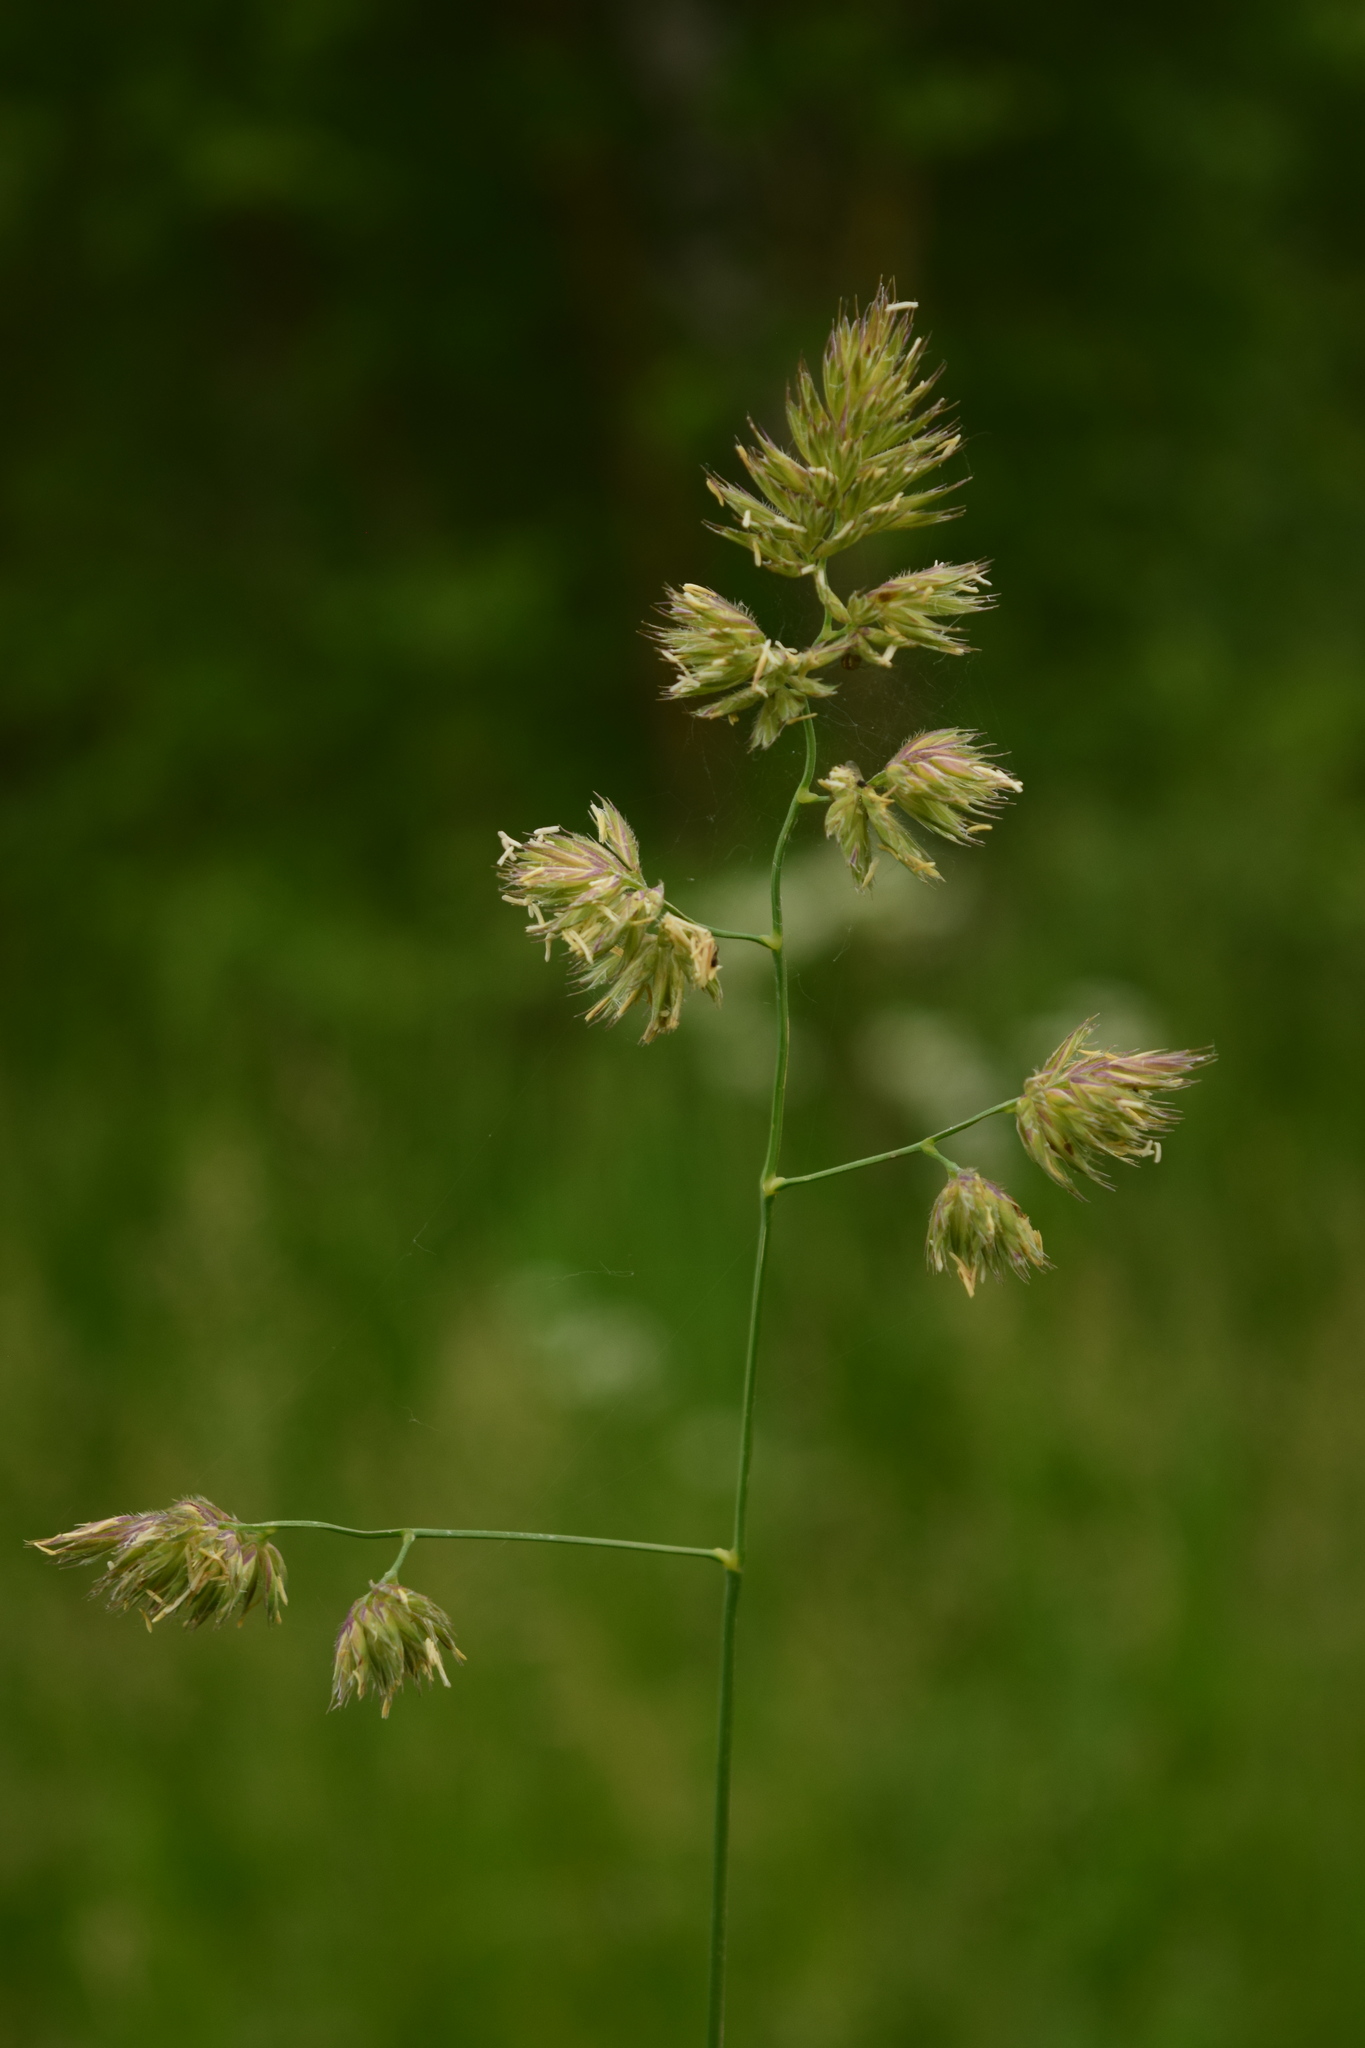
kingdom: Plantae
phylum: Tracheophyta
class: Liliopsida
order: Poales
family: Poaceae
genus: Dactylis
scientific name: Dactylis glomerata
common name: Orchardgrass
